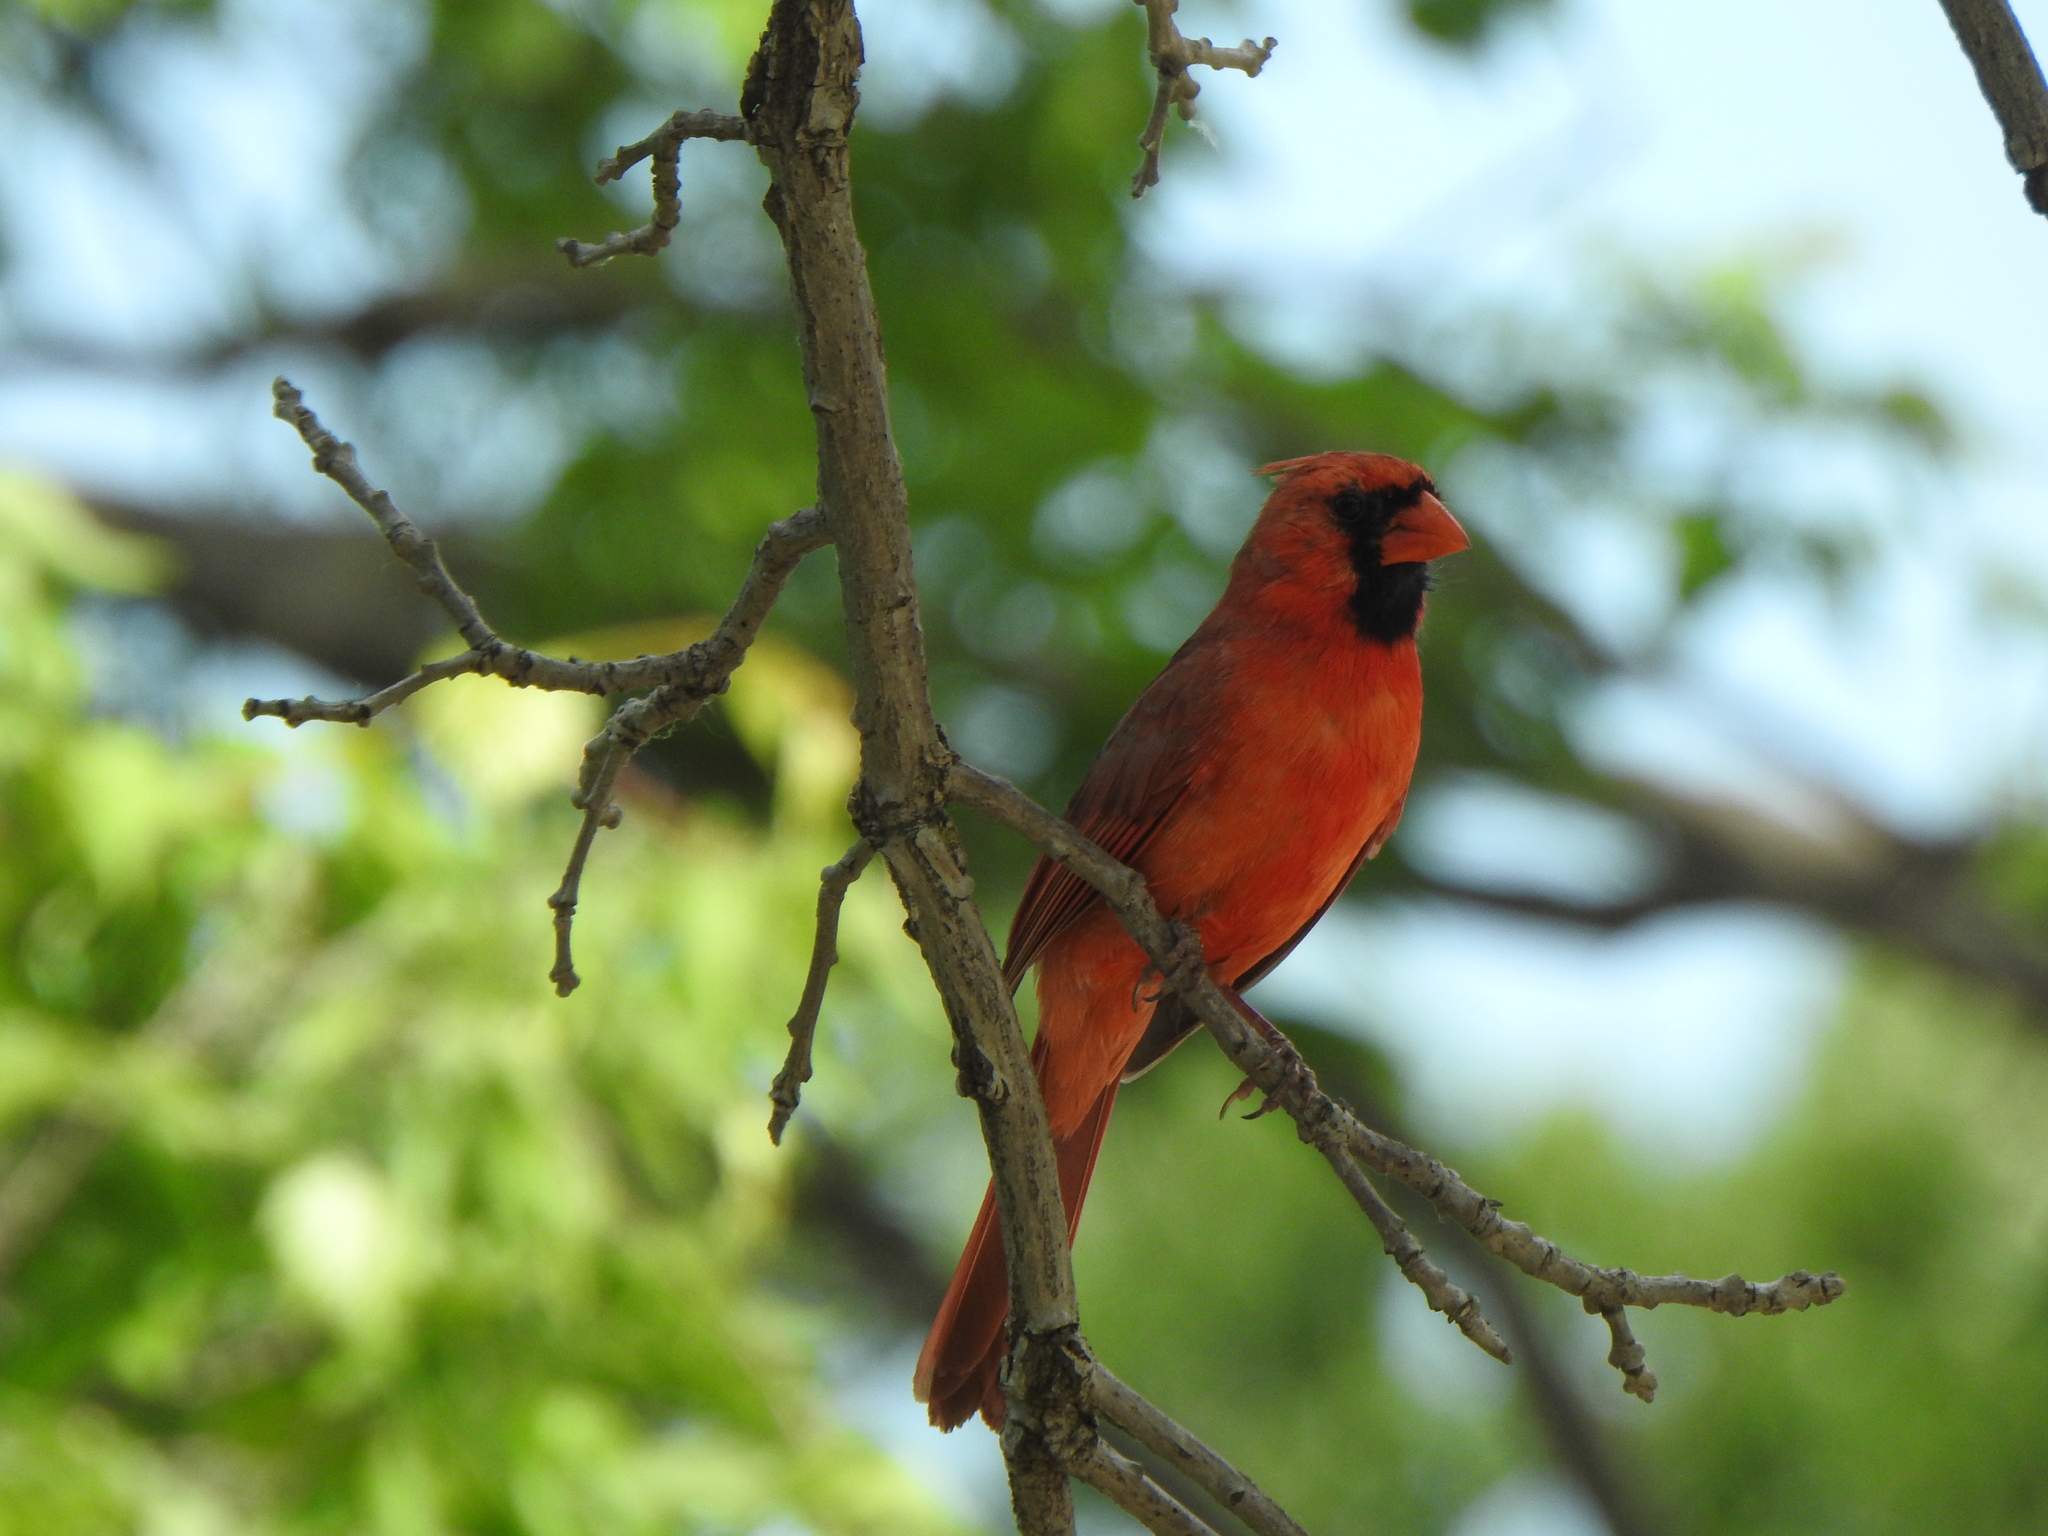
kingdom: Animalia
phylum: Chordata
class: Aves
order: Passeriformes
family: Cardinalidae
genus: Cardinalis
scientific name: Cardinalis cardinalis
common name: Northern cardinal
